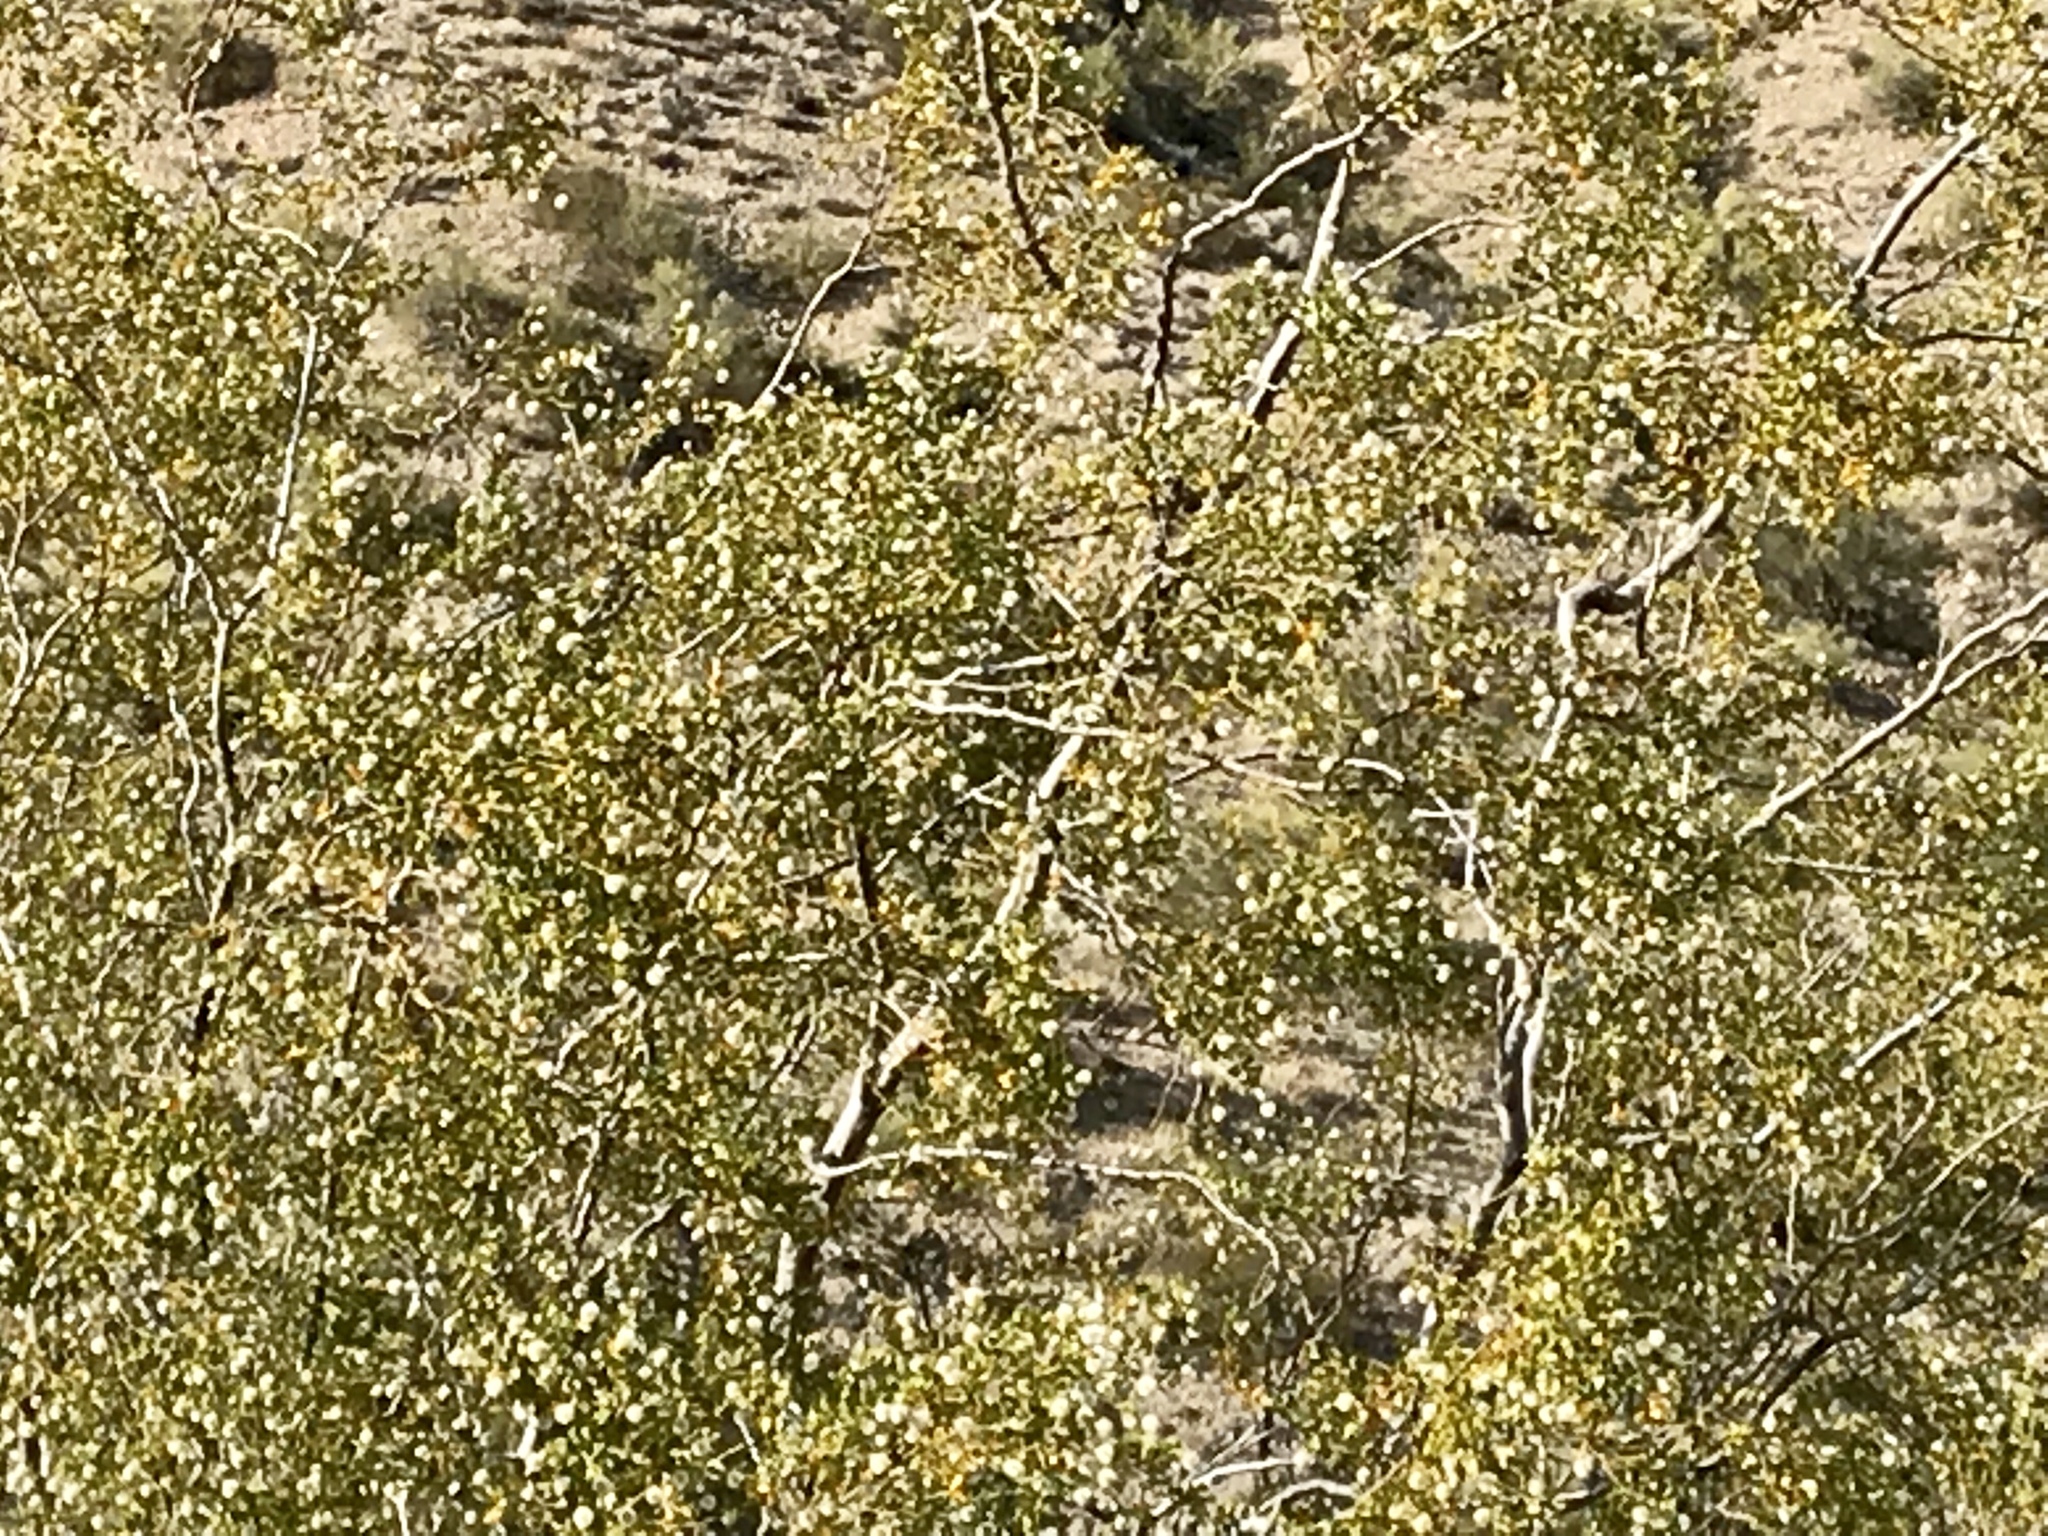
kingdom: Plantae
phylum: Tracheophyta
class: Magnoliopsida
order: Zygophyllales
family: Zygophyllaceae
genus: Larrea
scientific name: Larrea tridentata
